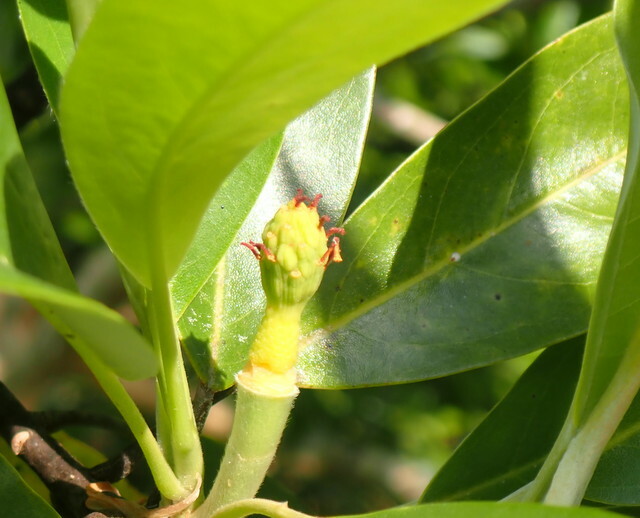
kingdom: Plantae
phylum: Tracheophyta
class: Magnoliopsida
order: Magnoliales
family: Magnoliaceae
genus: Magnolia
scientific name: Magnolia virginiana
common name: Swamp bay
